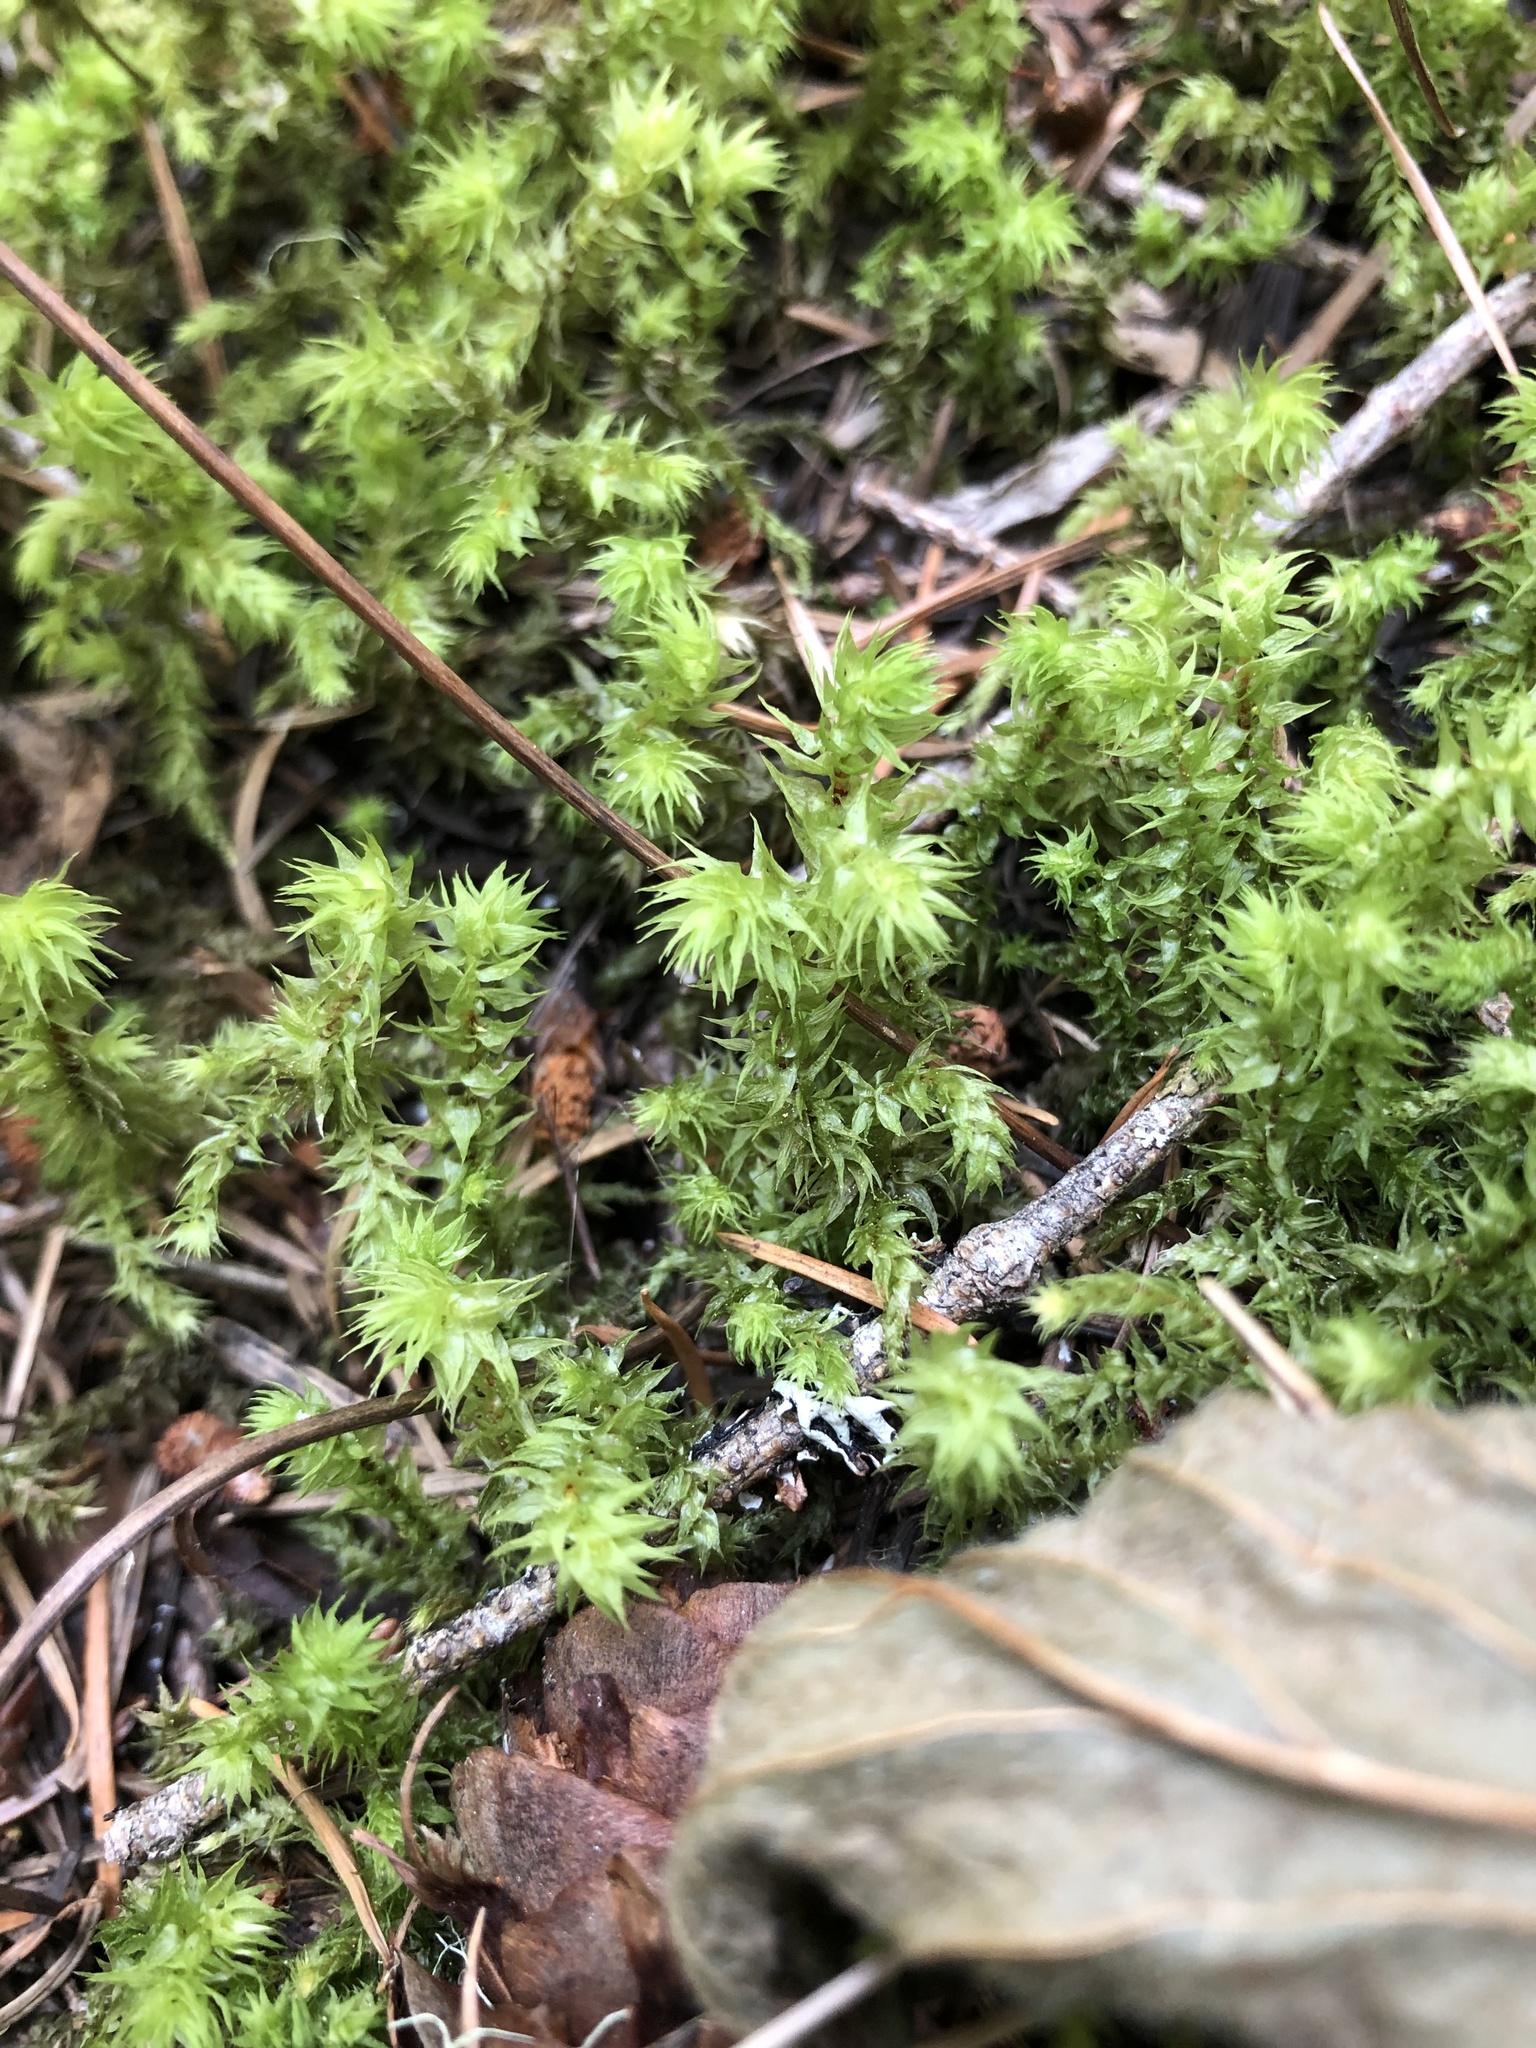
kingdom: Plantae
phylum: Bryophyta
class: Bryopsida
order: Hypnales
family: Hylocomiaceae
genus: Hylocomiadelphus
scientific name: Hylocomiadelphus triquetrus
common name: Rough goose neck moss
